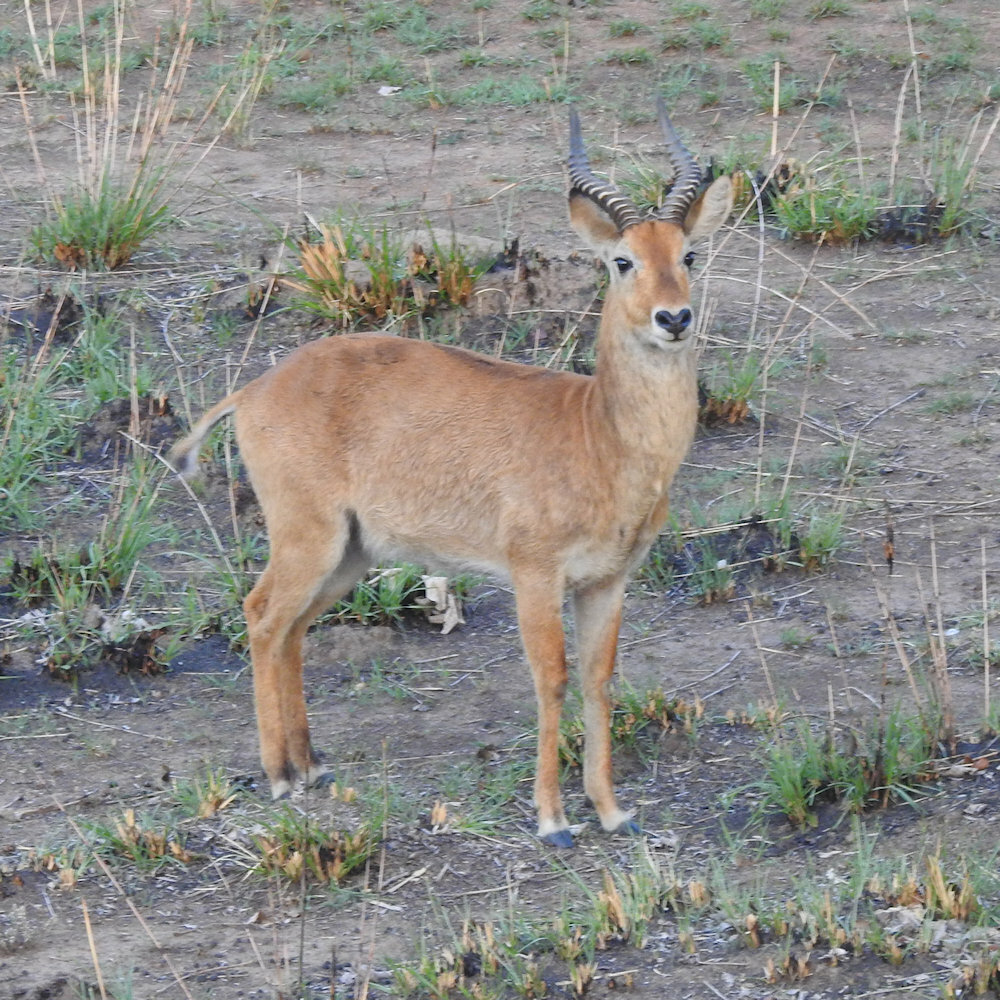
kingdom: Animalia
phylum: Chordata
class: Mammalia
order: Artiodactyla
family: Bovidae
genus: Kobus
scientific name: Kobus vardonii
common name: Puku
